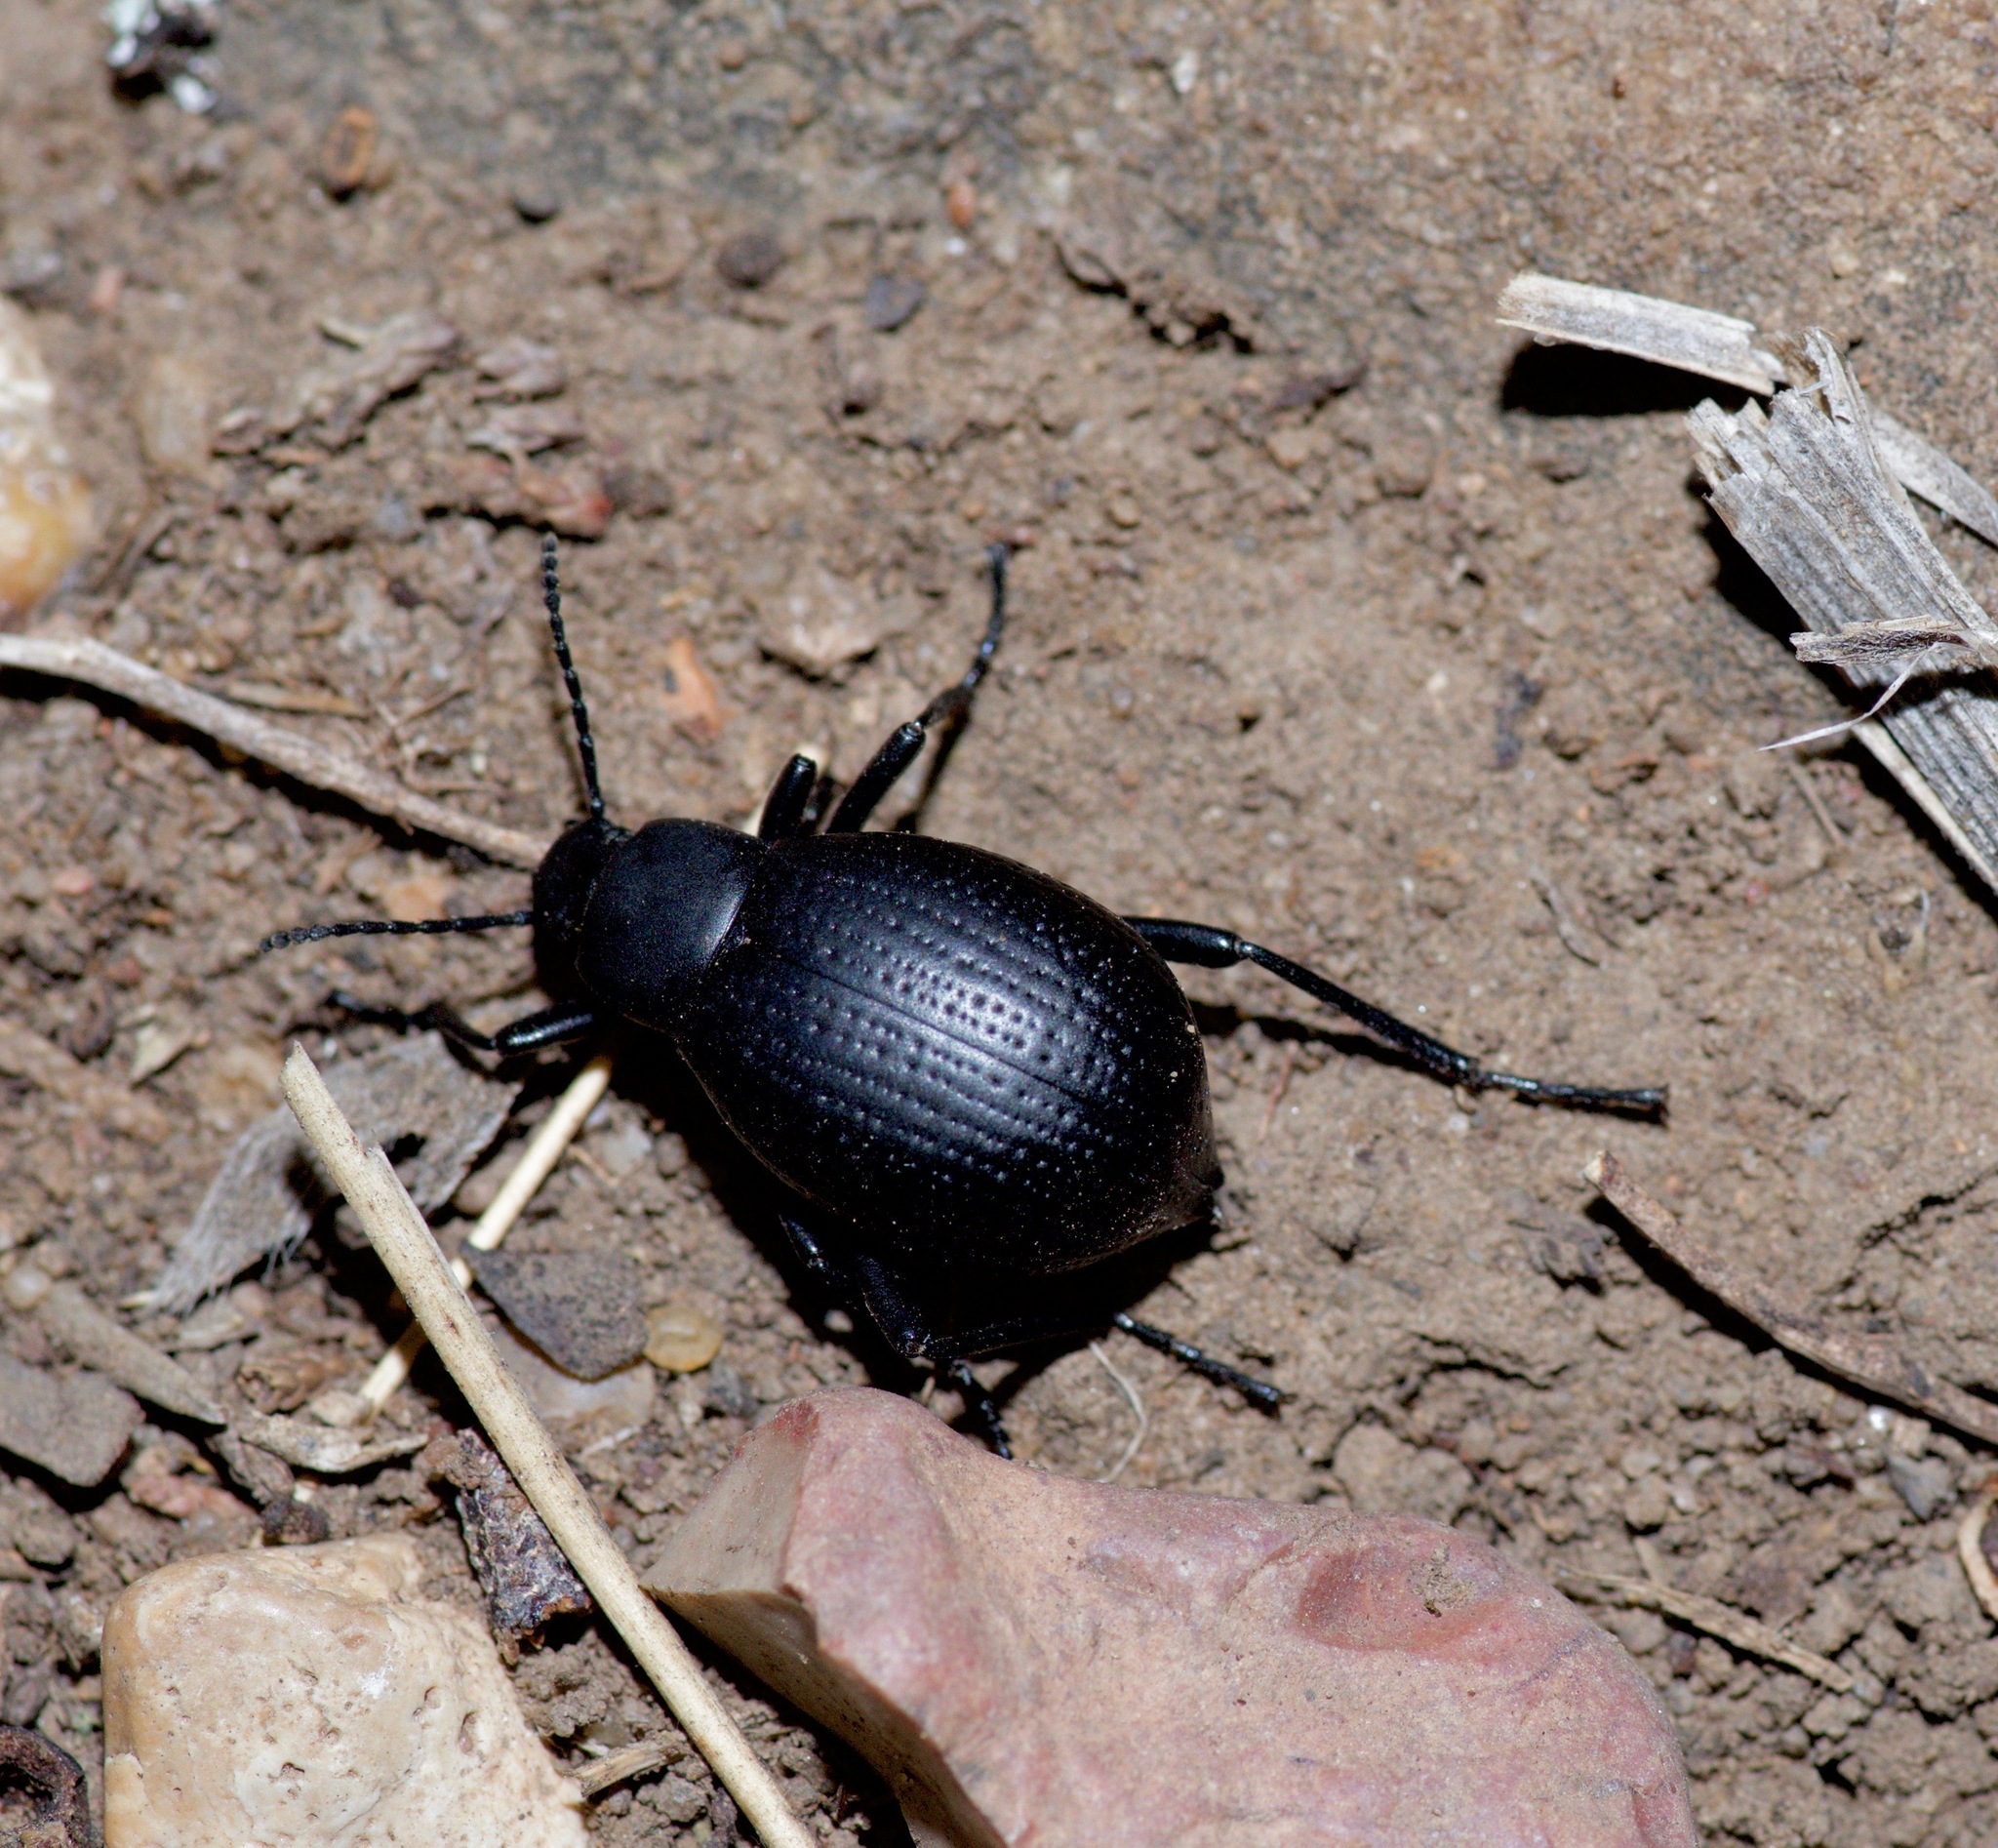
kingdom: Animalia
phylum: Arthropoda
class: Insecta
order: Coleoptera
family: Tenebrionidae
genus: Eleodes
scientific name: Eleodes goryi
